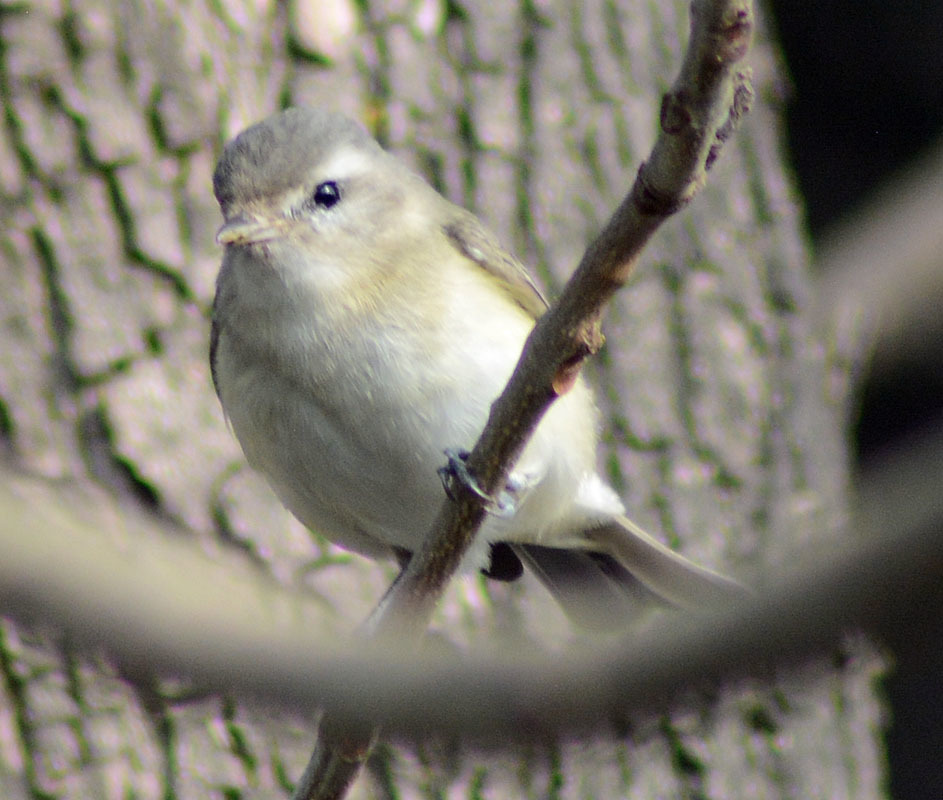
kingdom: Animalia
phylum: Chordata
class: Aves
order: Passeriformes
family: Vireonidae
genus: Vireo
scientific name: Vireo gilvus
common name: Warbling vireo
